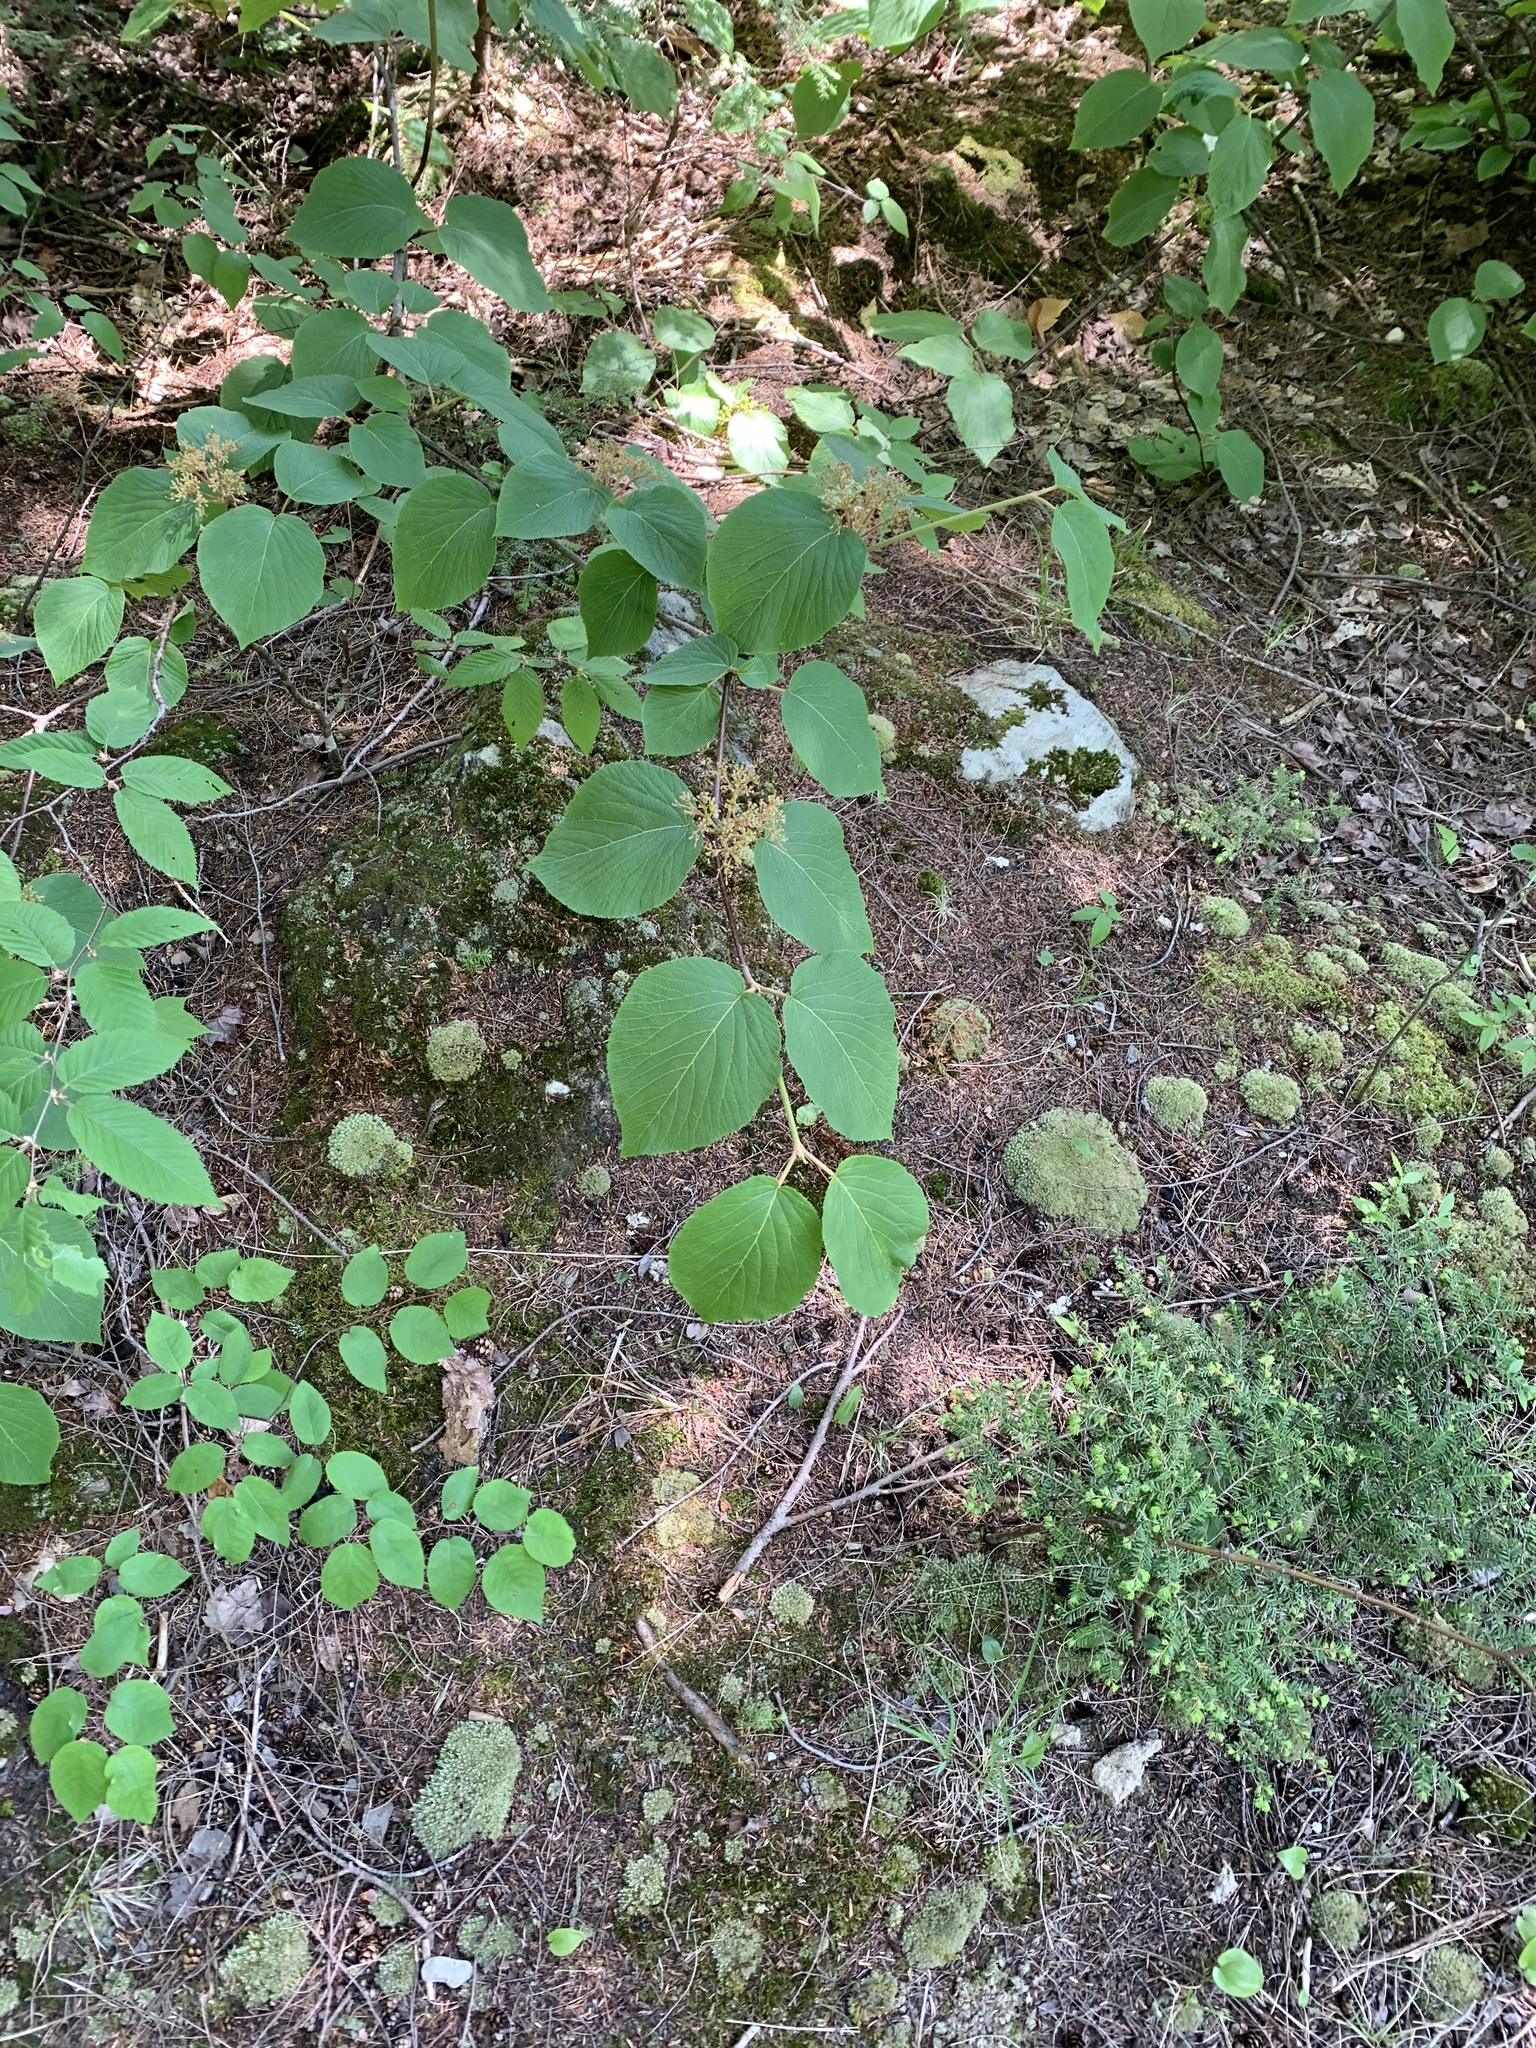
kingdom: Plantae
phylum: Tracheophyta
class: Magnoliopsida
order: Dipsacales
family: Viburnaceae
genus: Viburnum
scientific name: Viburnum lantanoides
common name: Hobblebush
